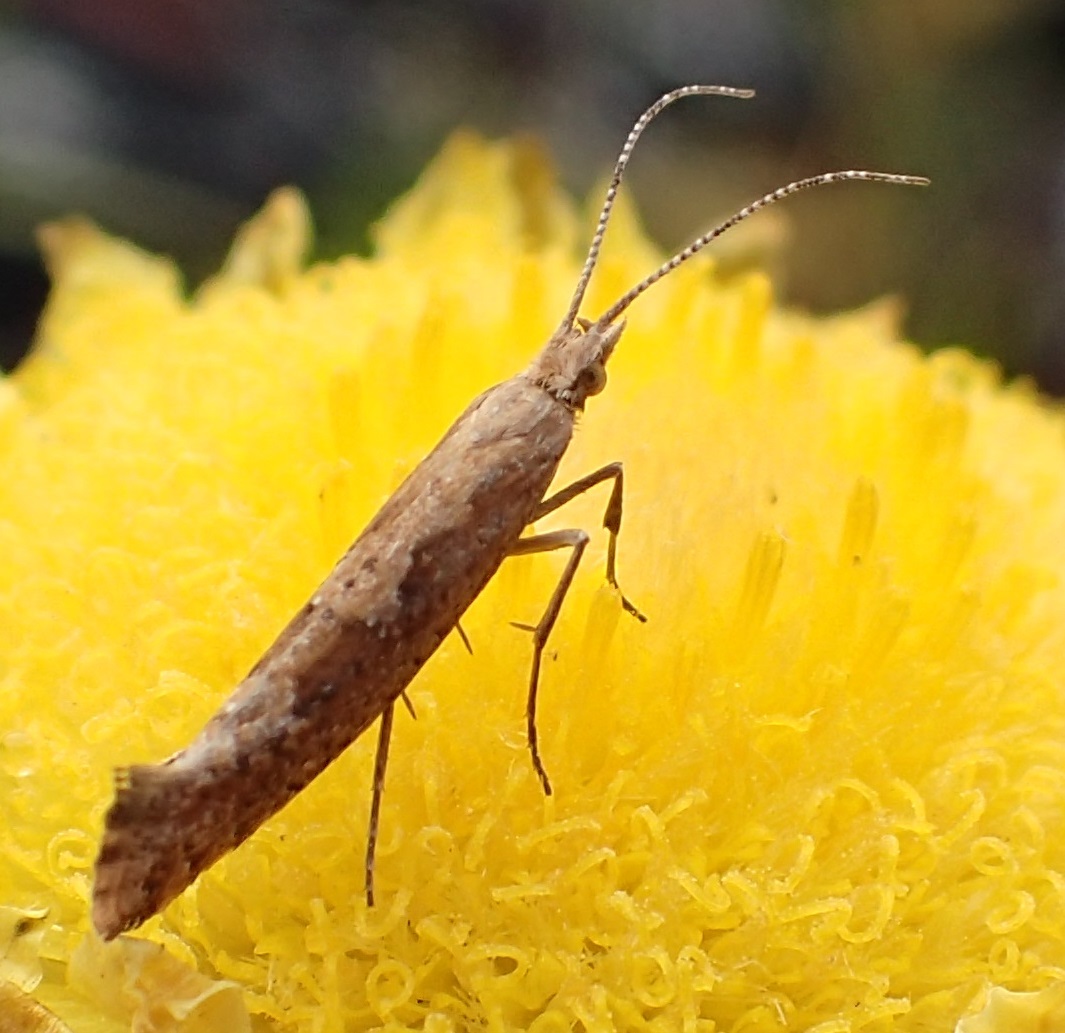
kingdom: Animalia
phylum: Arthropoda
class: Insecta
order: Lepidoptera
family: Plutellidae
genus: Plutella
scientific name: Plutella xylostella
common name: Diamond-back moth
